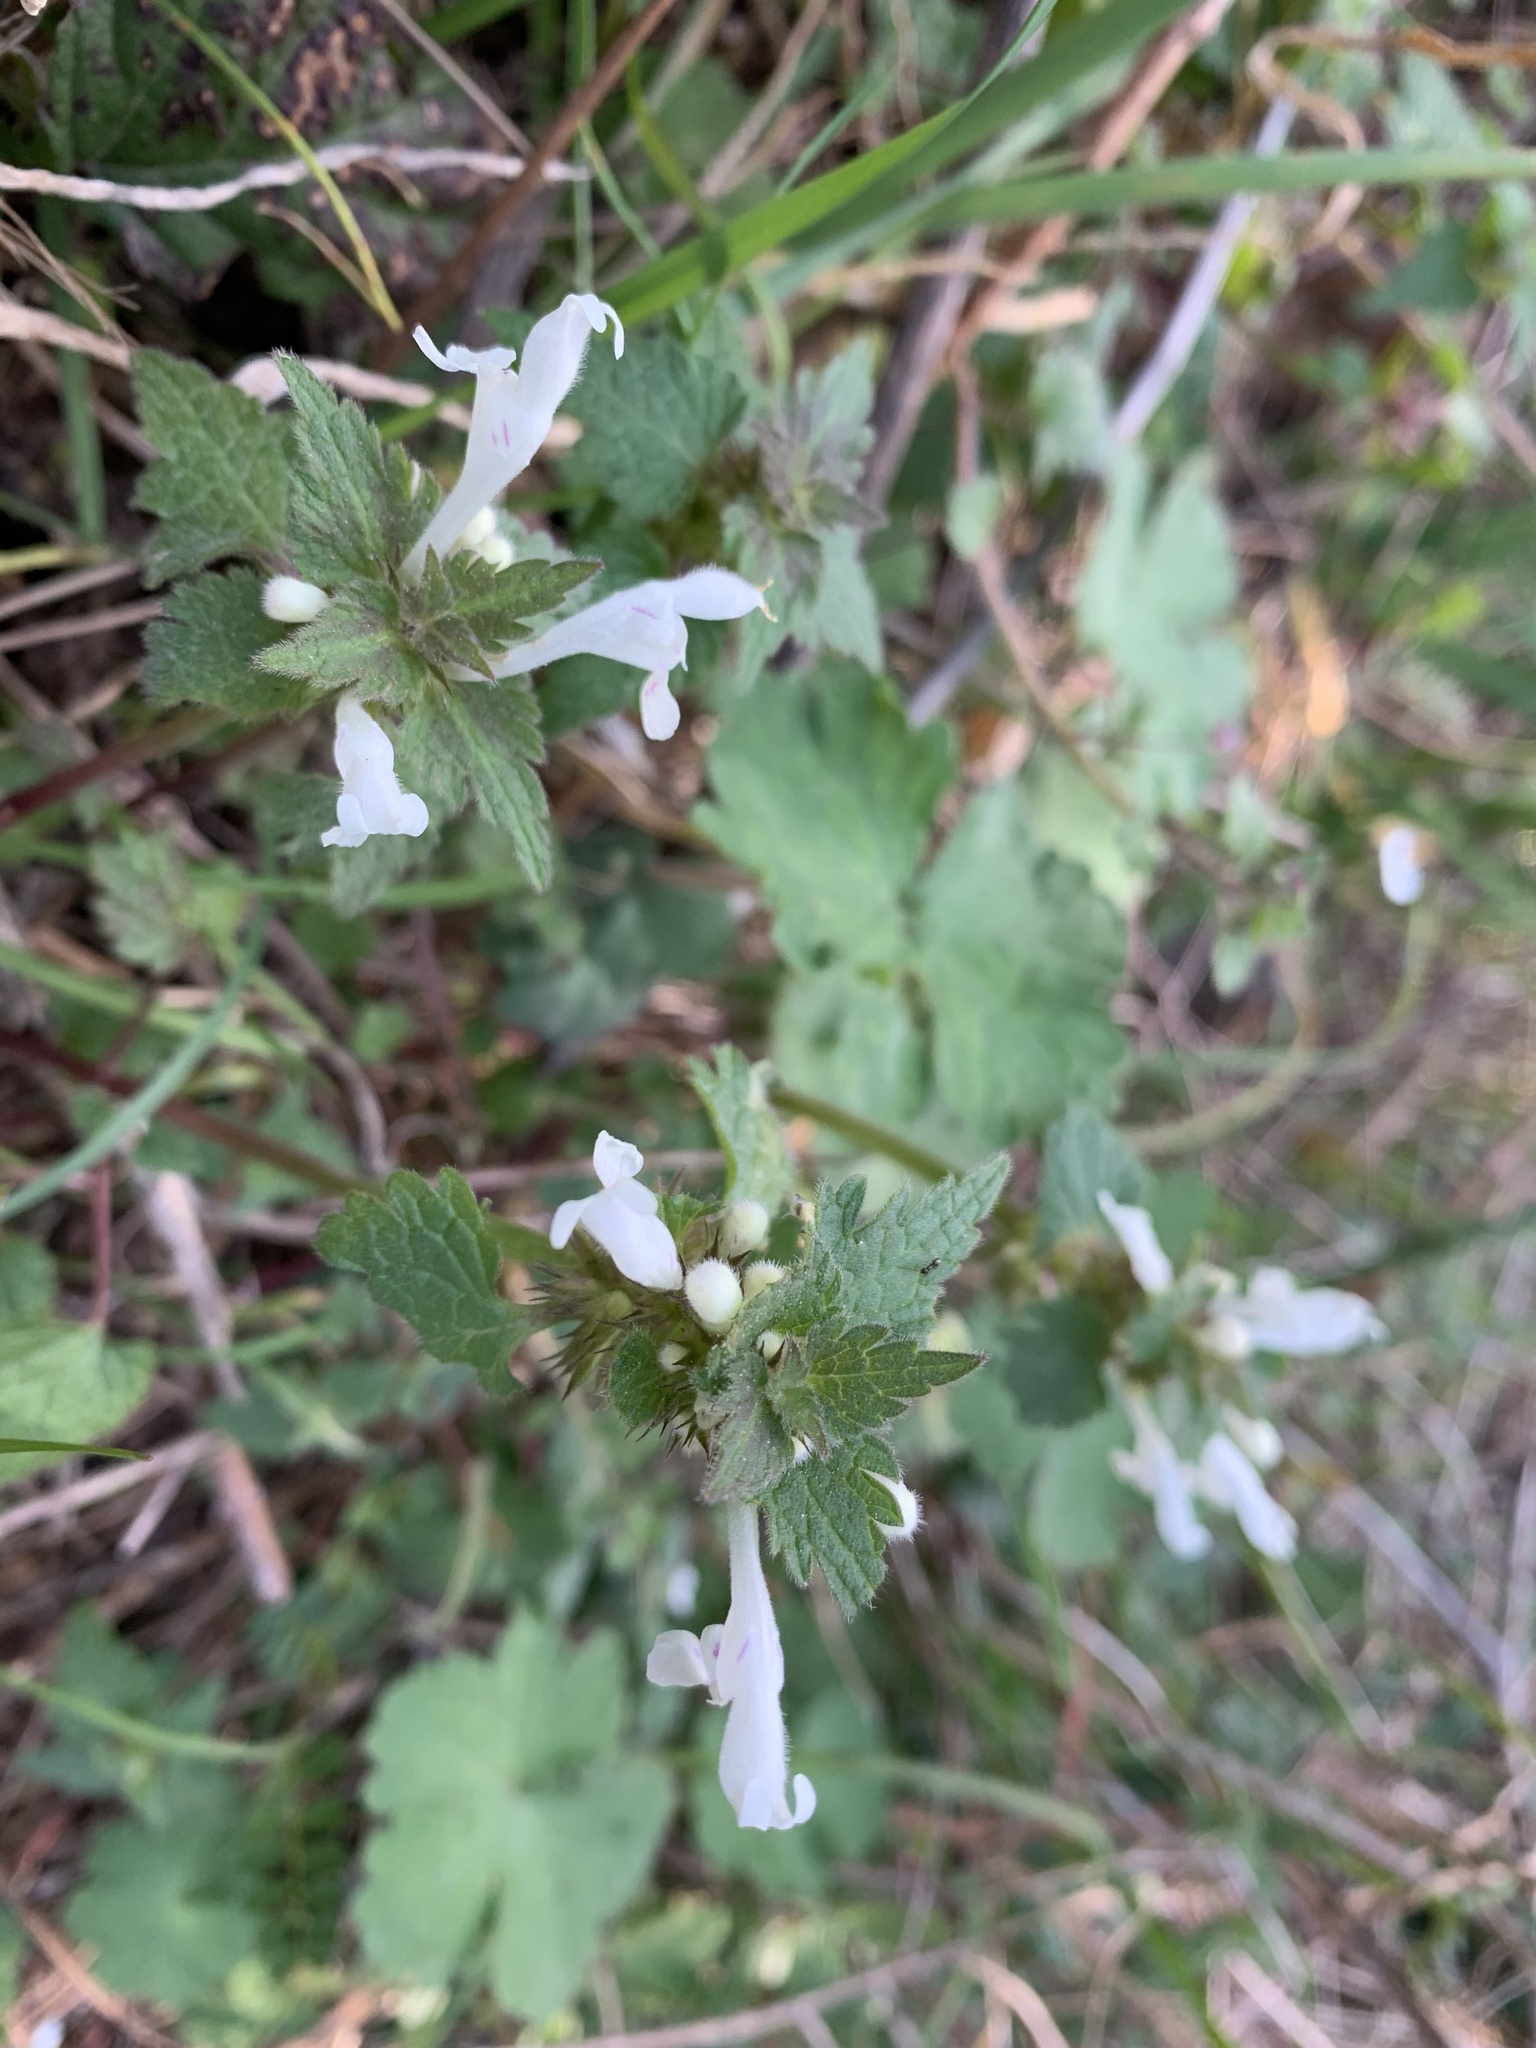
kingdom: Plantae
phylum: Tracheophyta
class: Magnoliopsida
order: Lamiales
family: Lamiaceae
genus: Lamium
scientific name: Lamium bifidum
